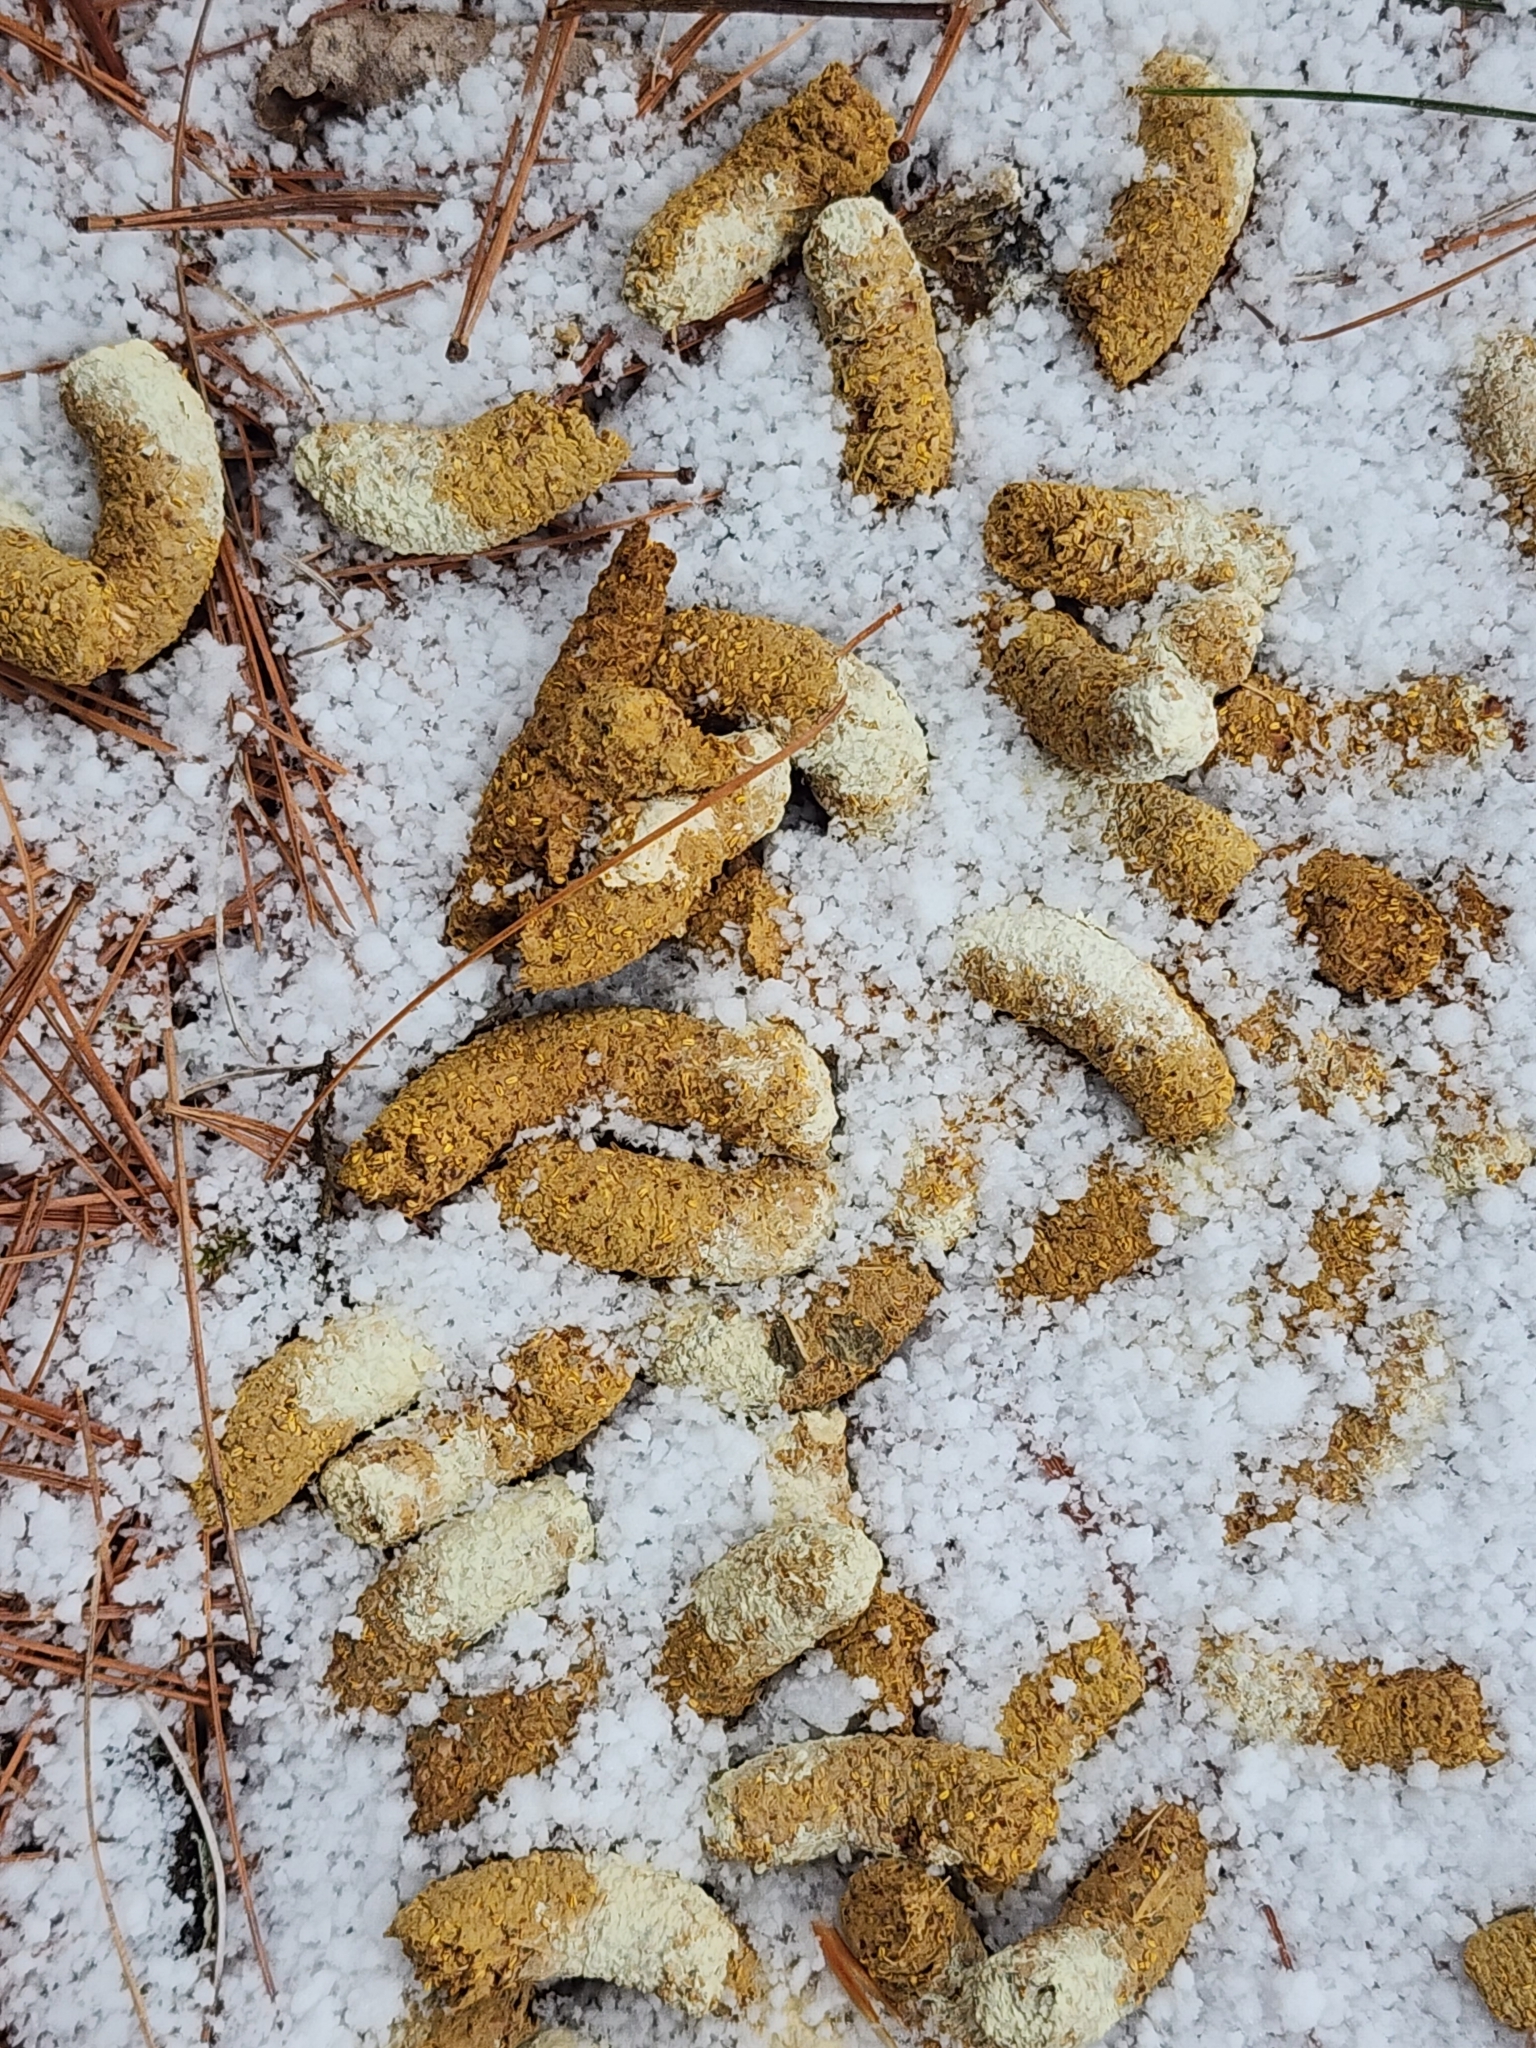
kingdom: Animalia
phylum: Chordata
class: Aves
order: Galliformes
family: Phasianidae
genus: Bonasa
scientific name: Bonasa umbellus
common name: Ruffed grouse
